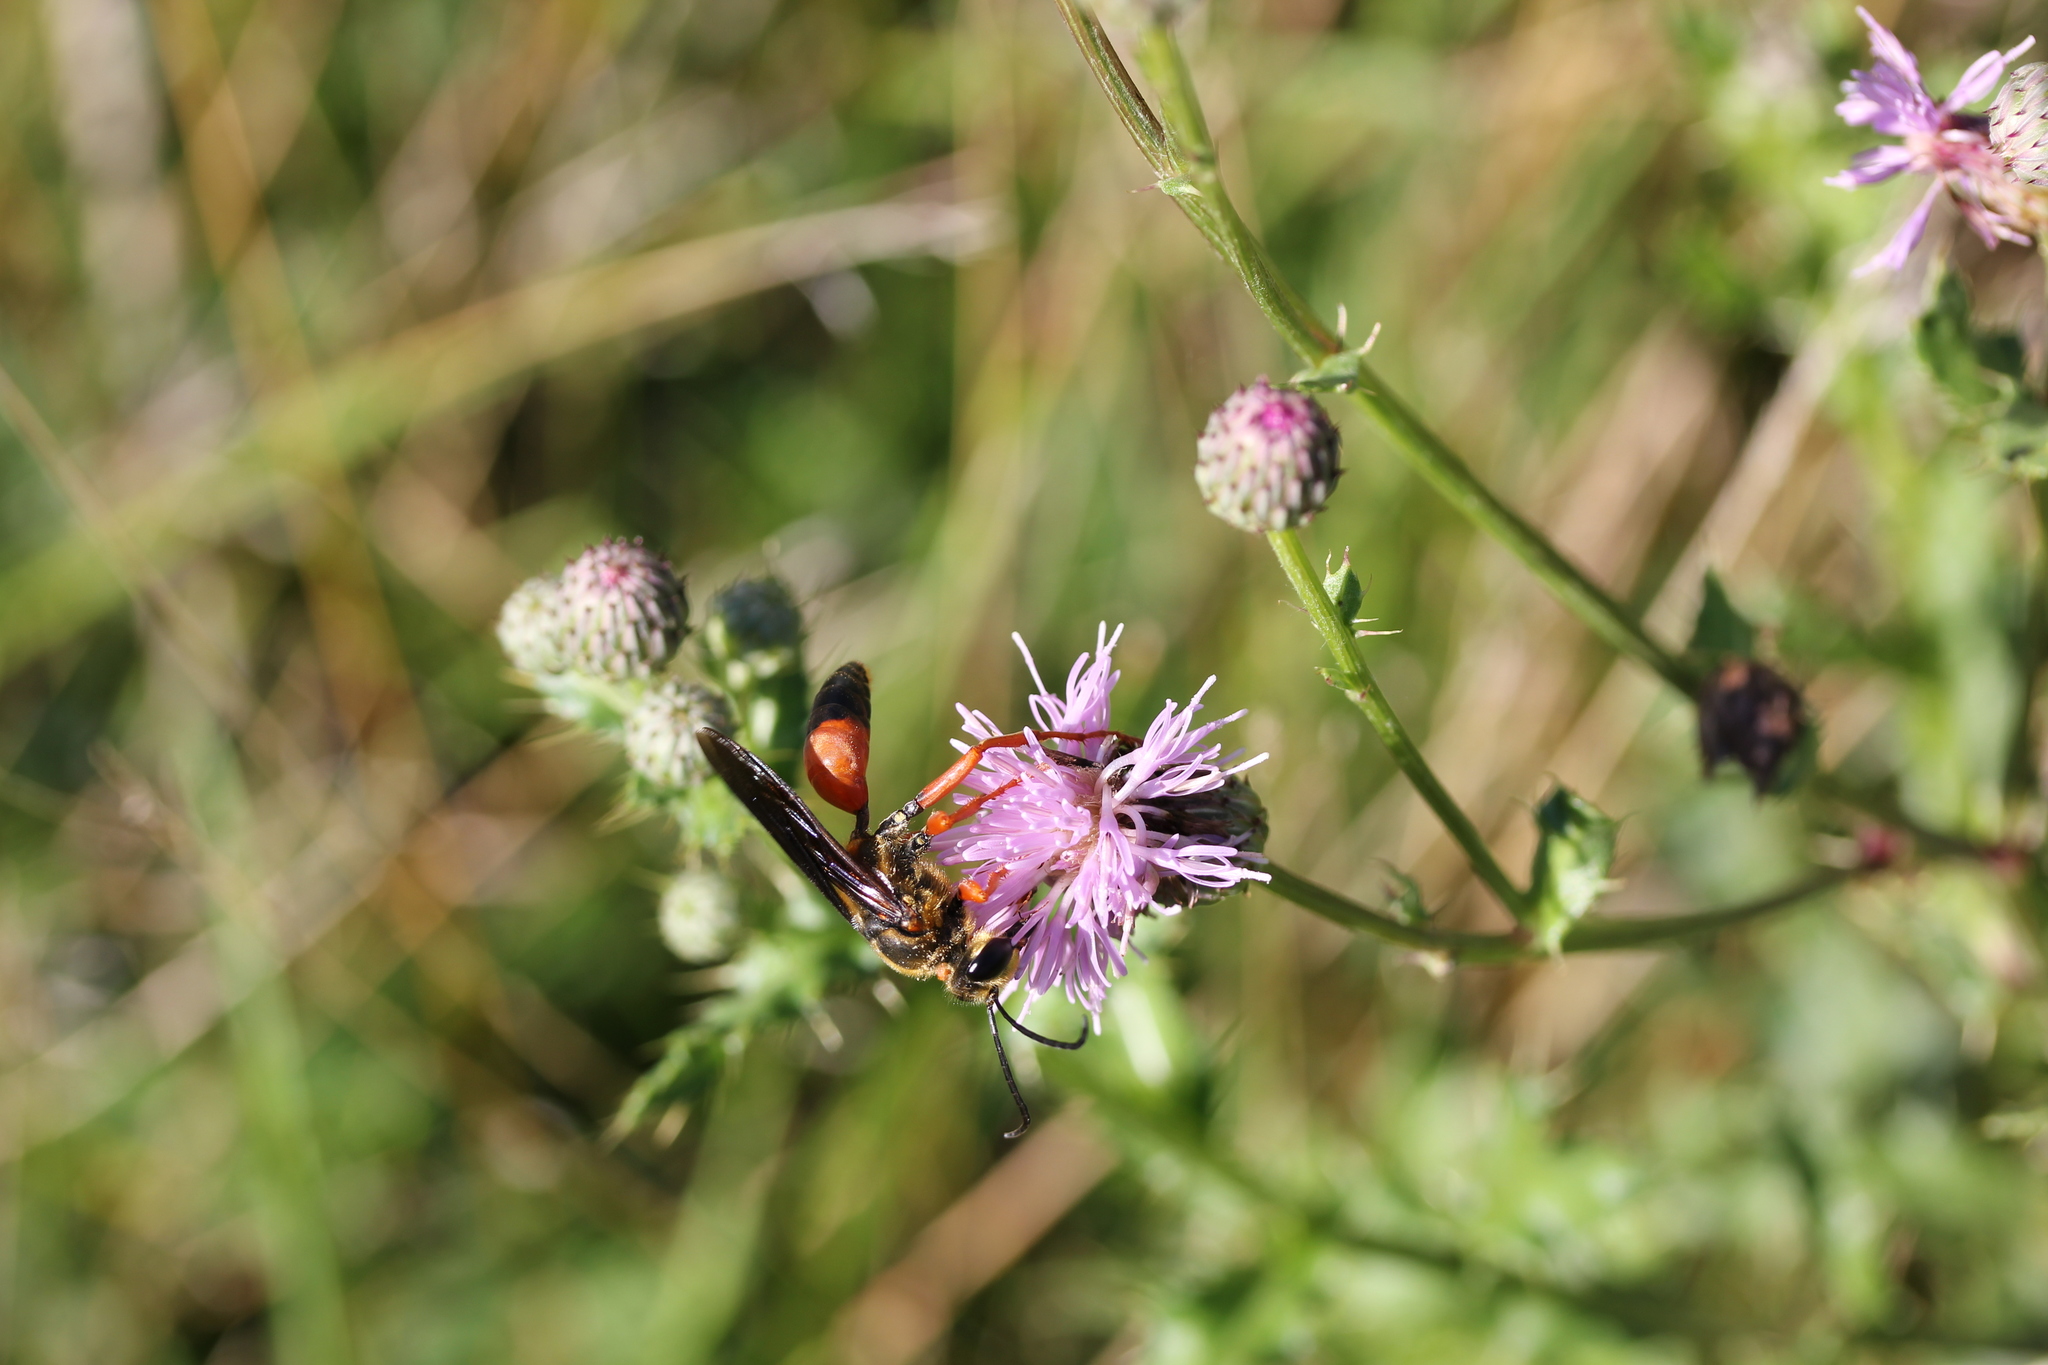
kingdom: Animalia
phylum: Arthropoda
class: Insecta
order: Hymenoptera
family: Sphecidae
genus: Sphex
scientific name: Sphex ichneumoneus
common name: Great golden digger wasp
